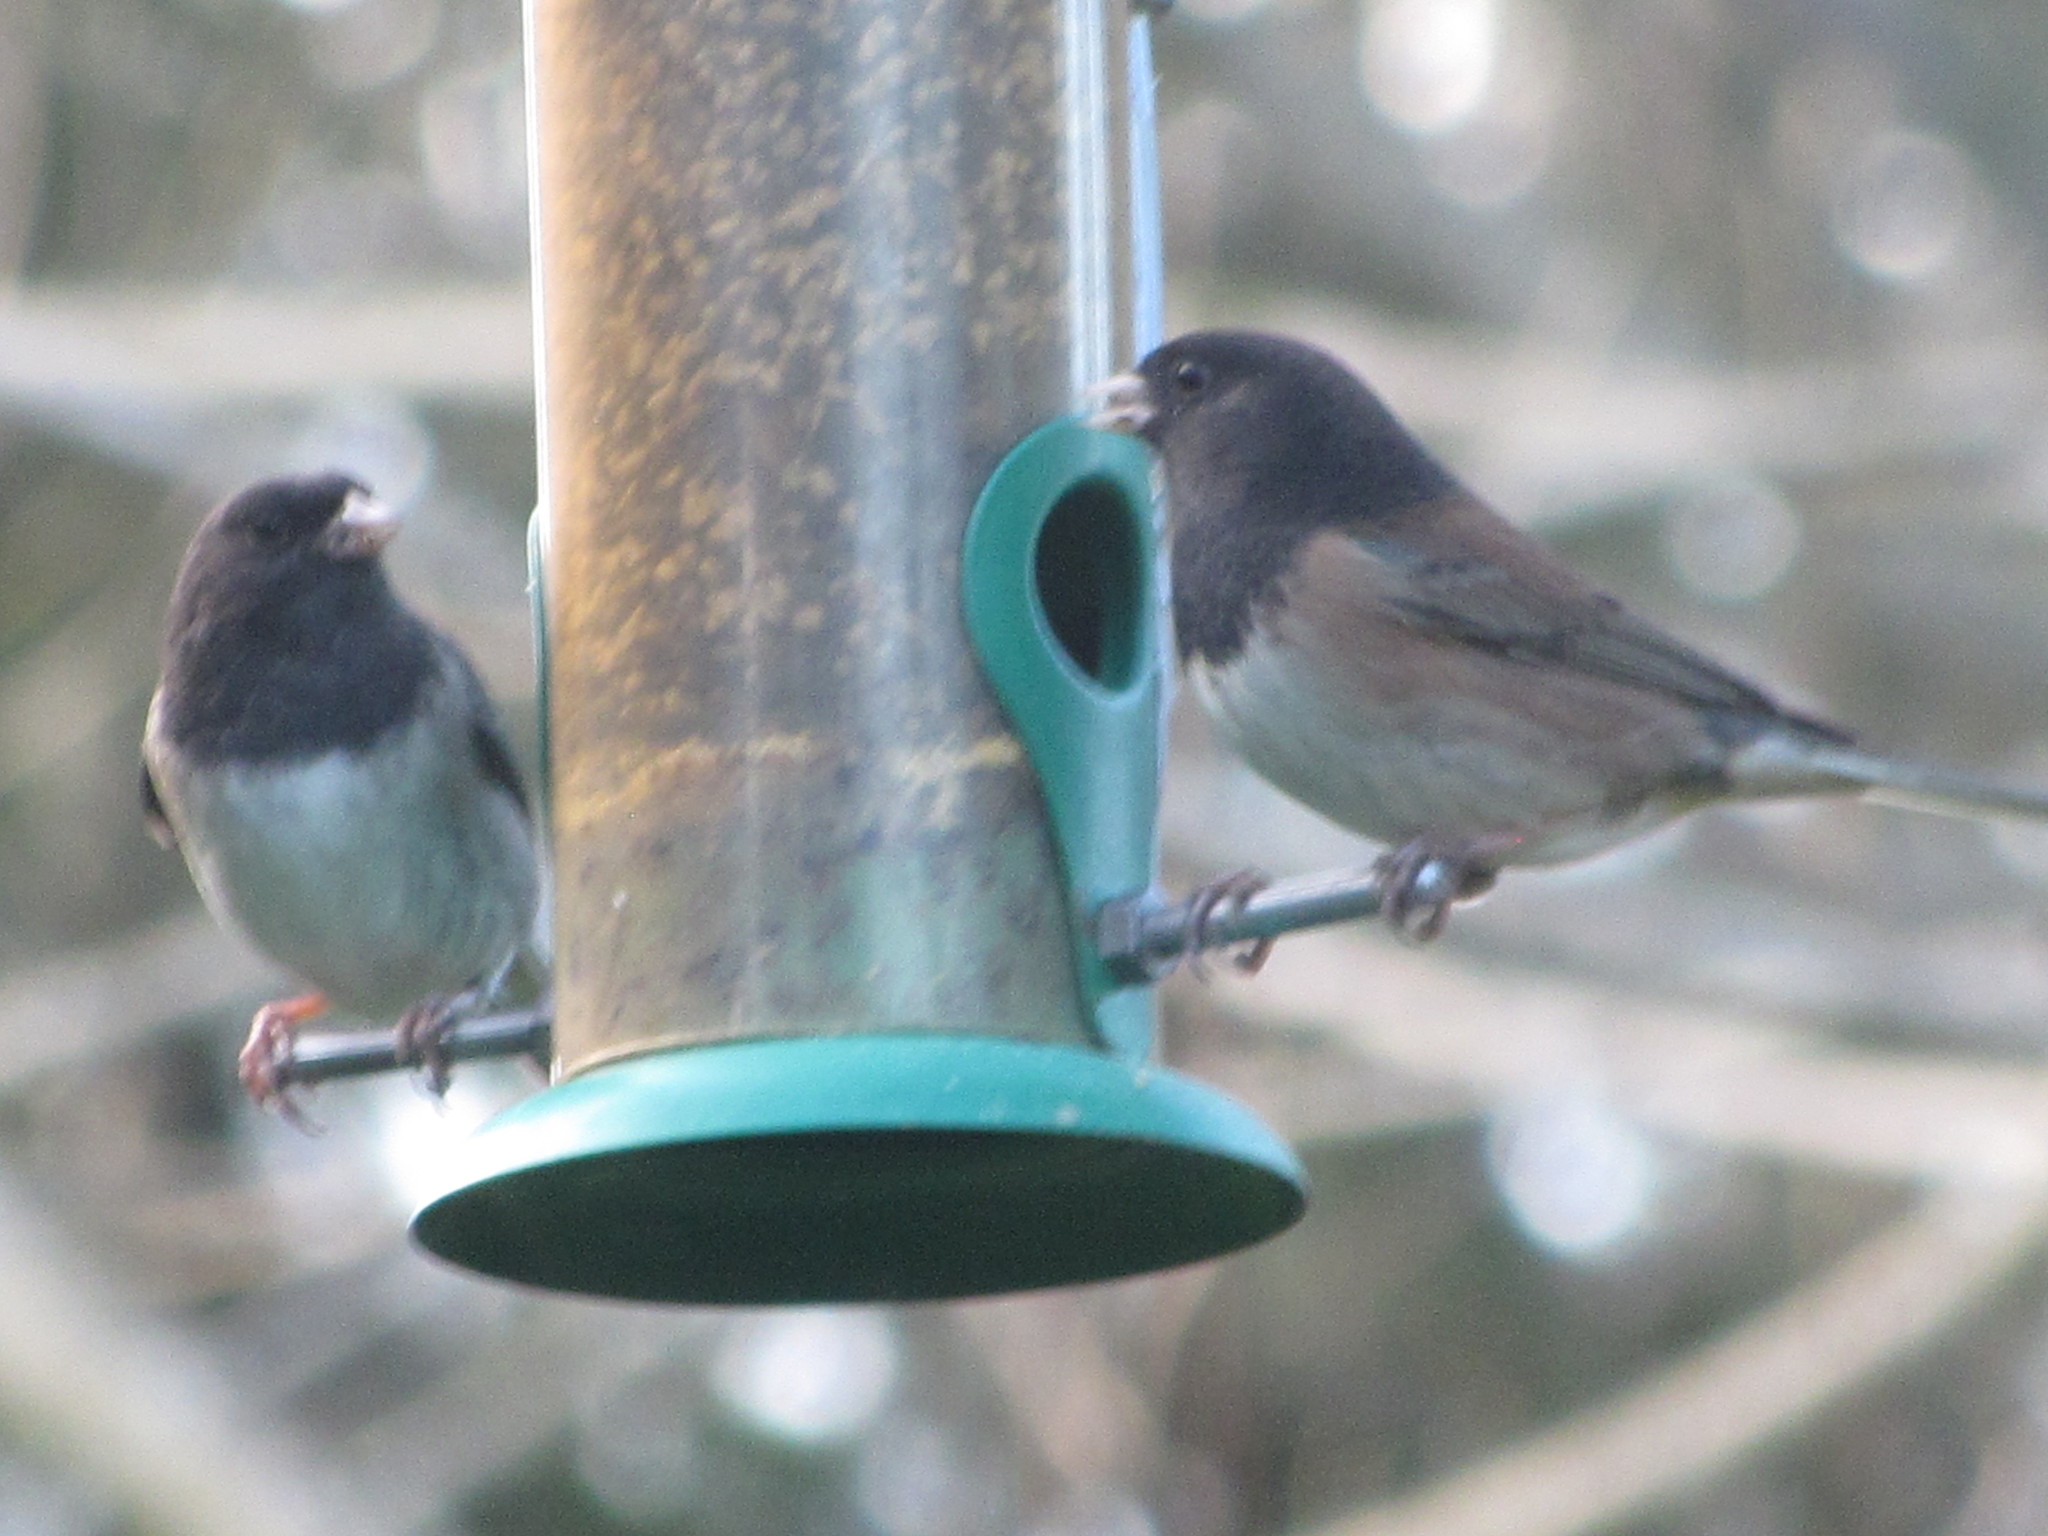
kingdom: Animalia
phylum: Chordata
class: Aves
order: Passeriformes
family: Passerellidae
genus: Junco
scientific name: Junco hyemalis
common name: Dark-eyed junco
